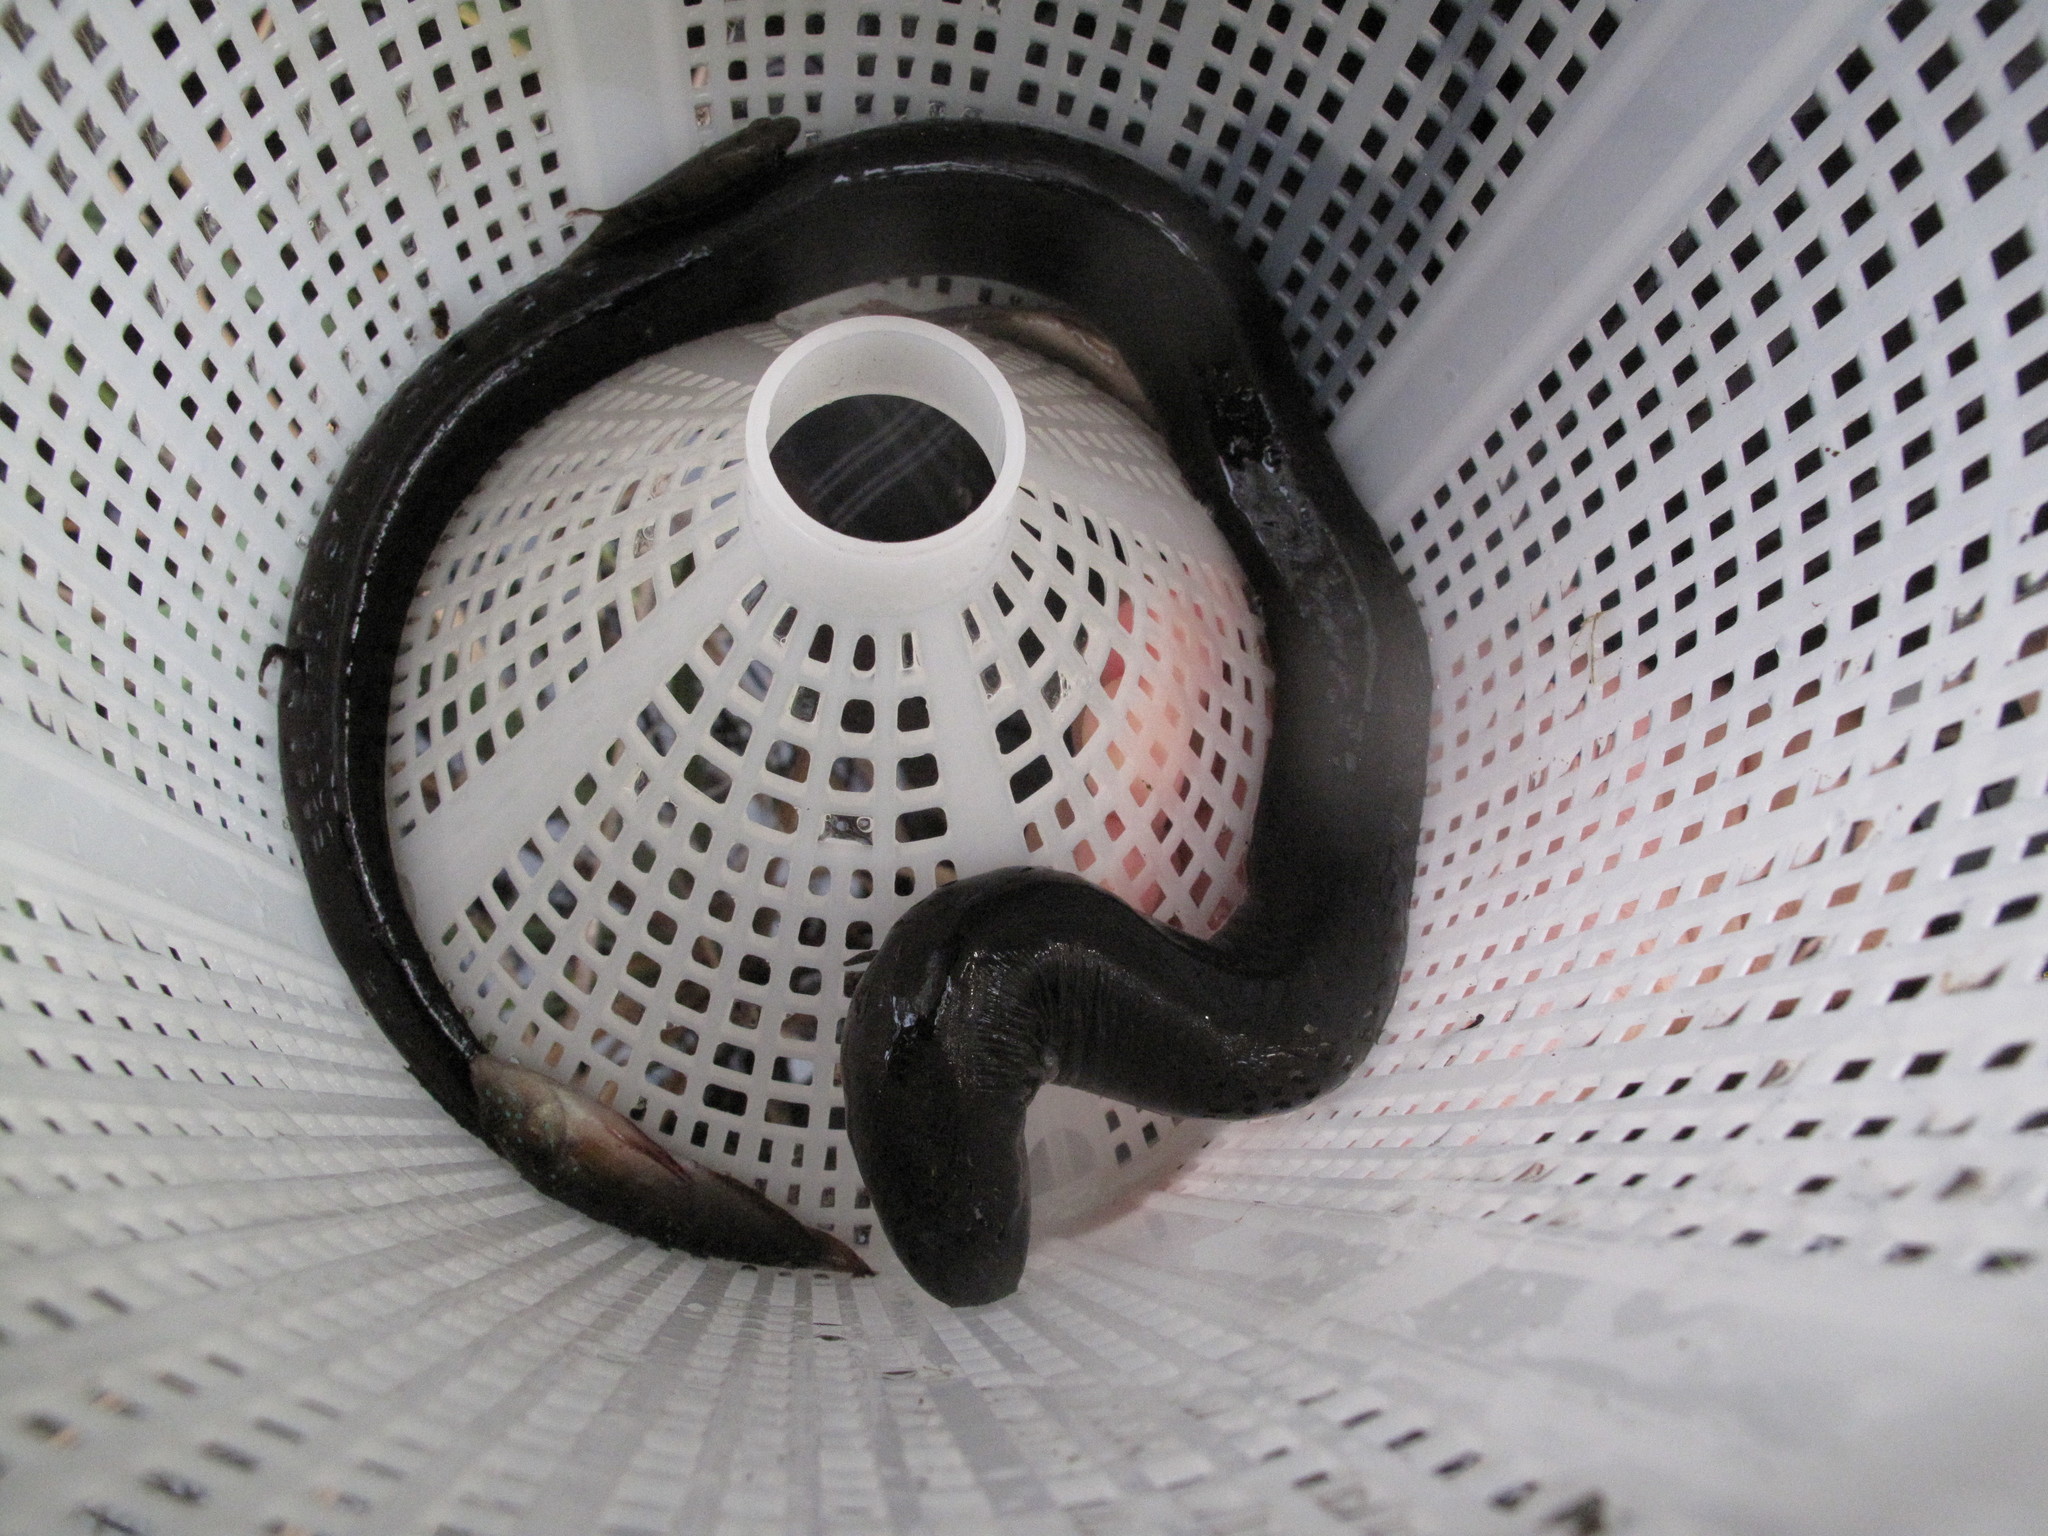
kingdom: Animalia
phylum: Chordata
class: Amphibia
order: Caudata
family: Amphiumidae
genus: Amphiuma
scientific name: Amphiuma means
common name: Two-toed amphiuma
